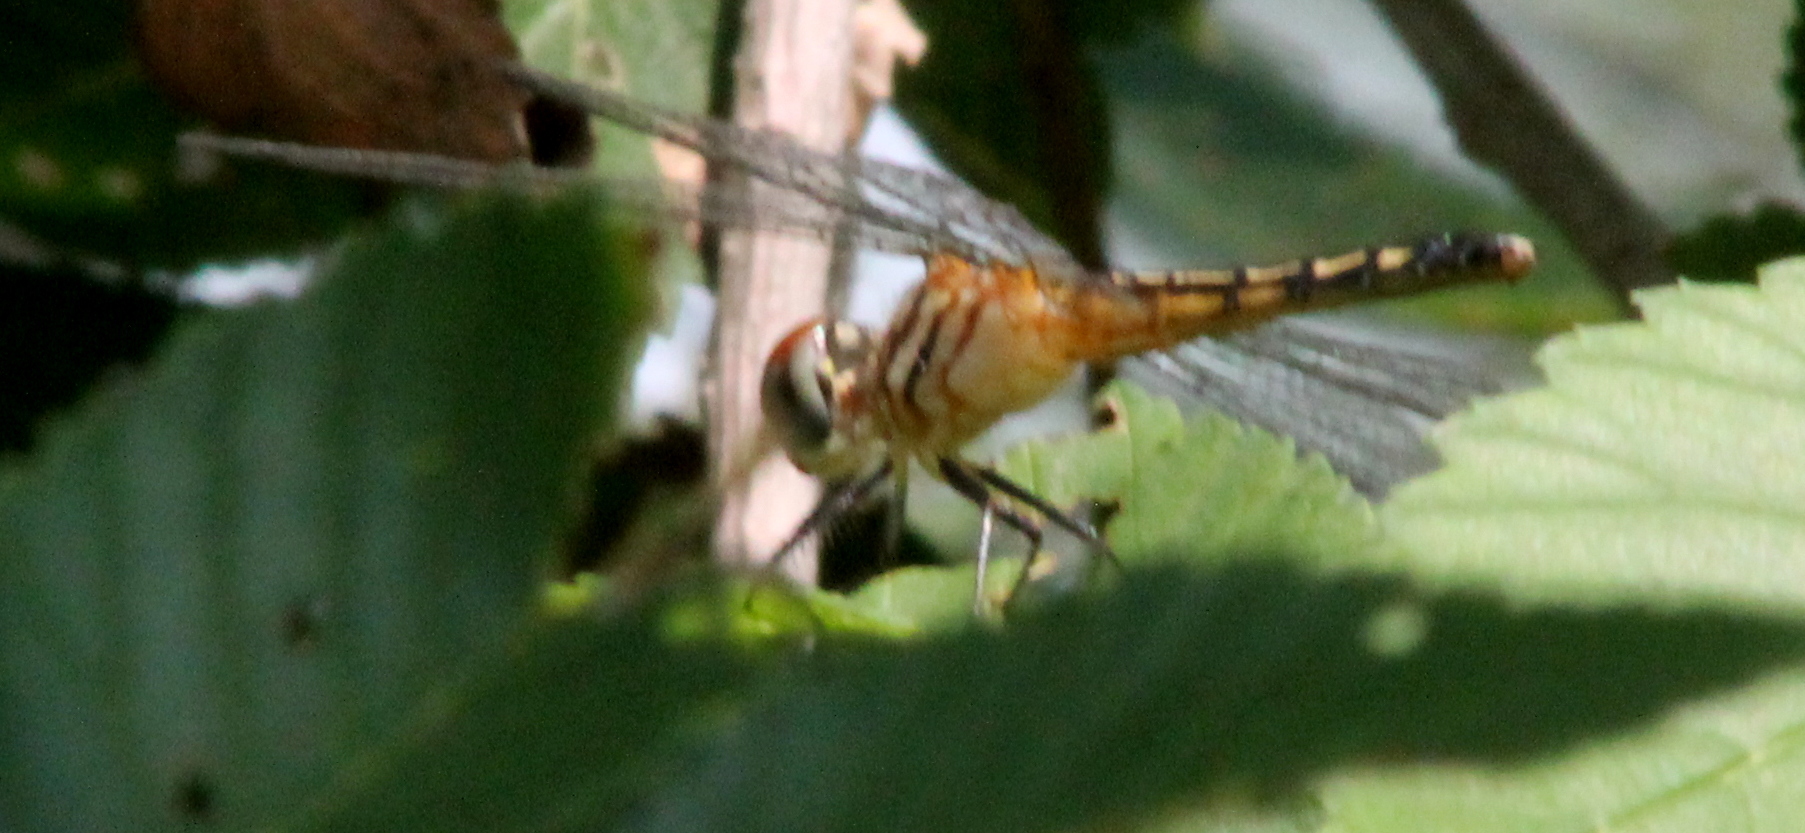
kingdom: Animalia
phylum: Arthropoda
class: Insecta
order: Odonata
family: Libellulidae
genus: Pachydiplax
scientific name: Pachydiplax longipennis
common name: Blue dasher
